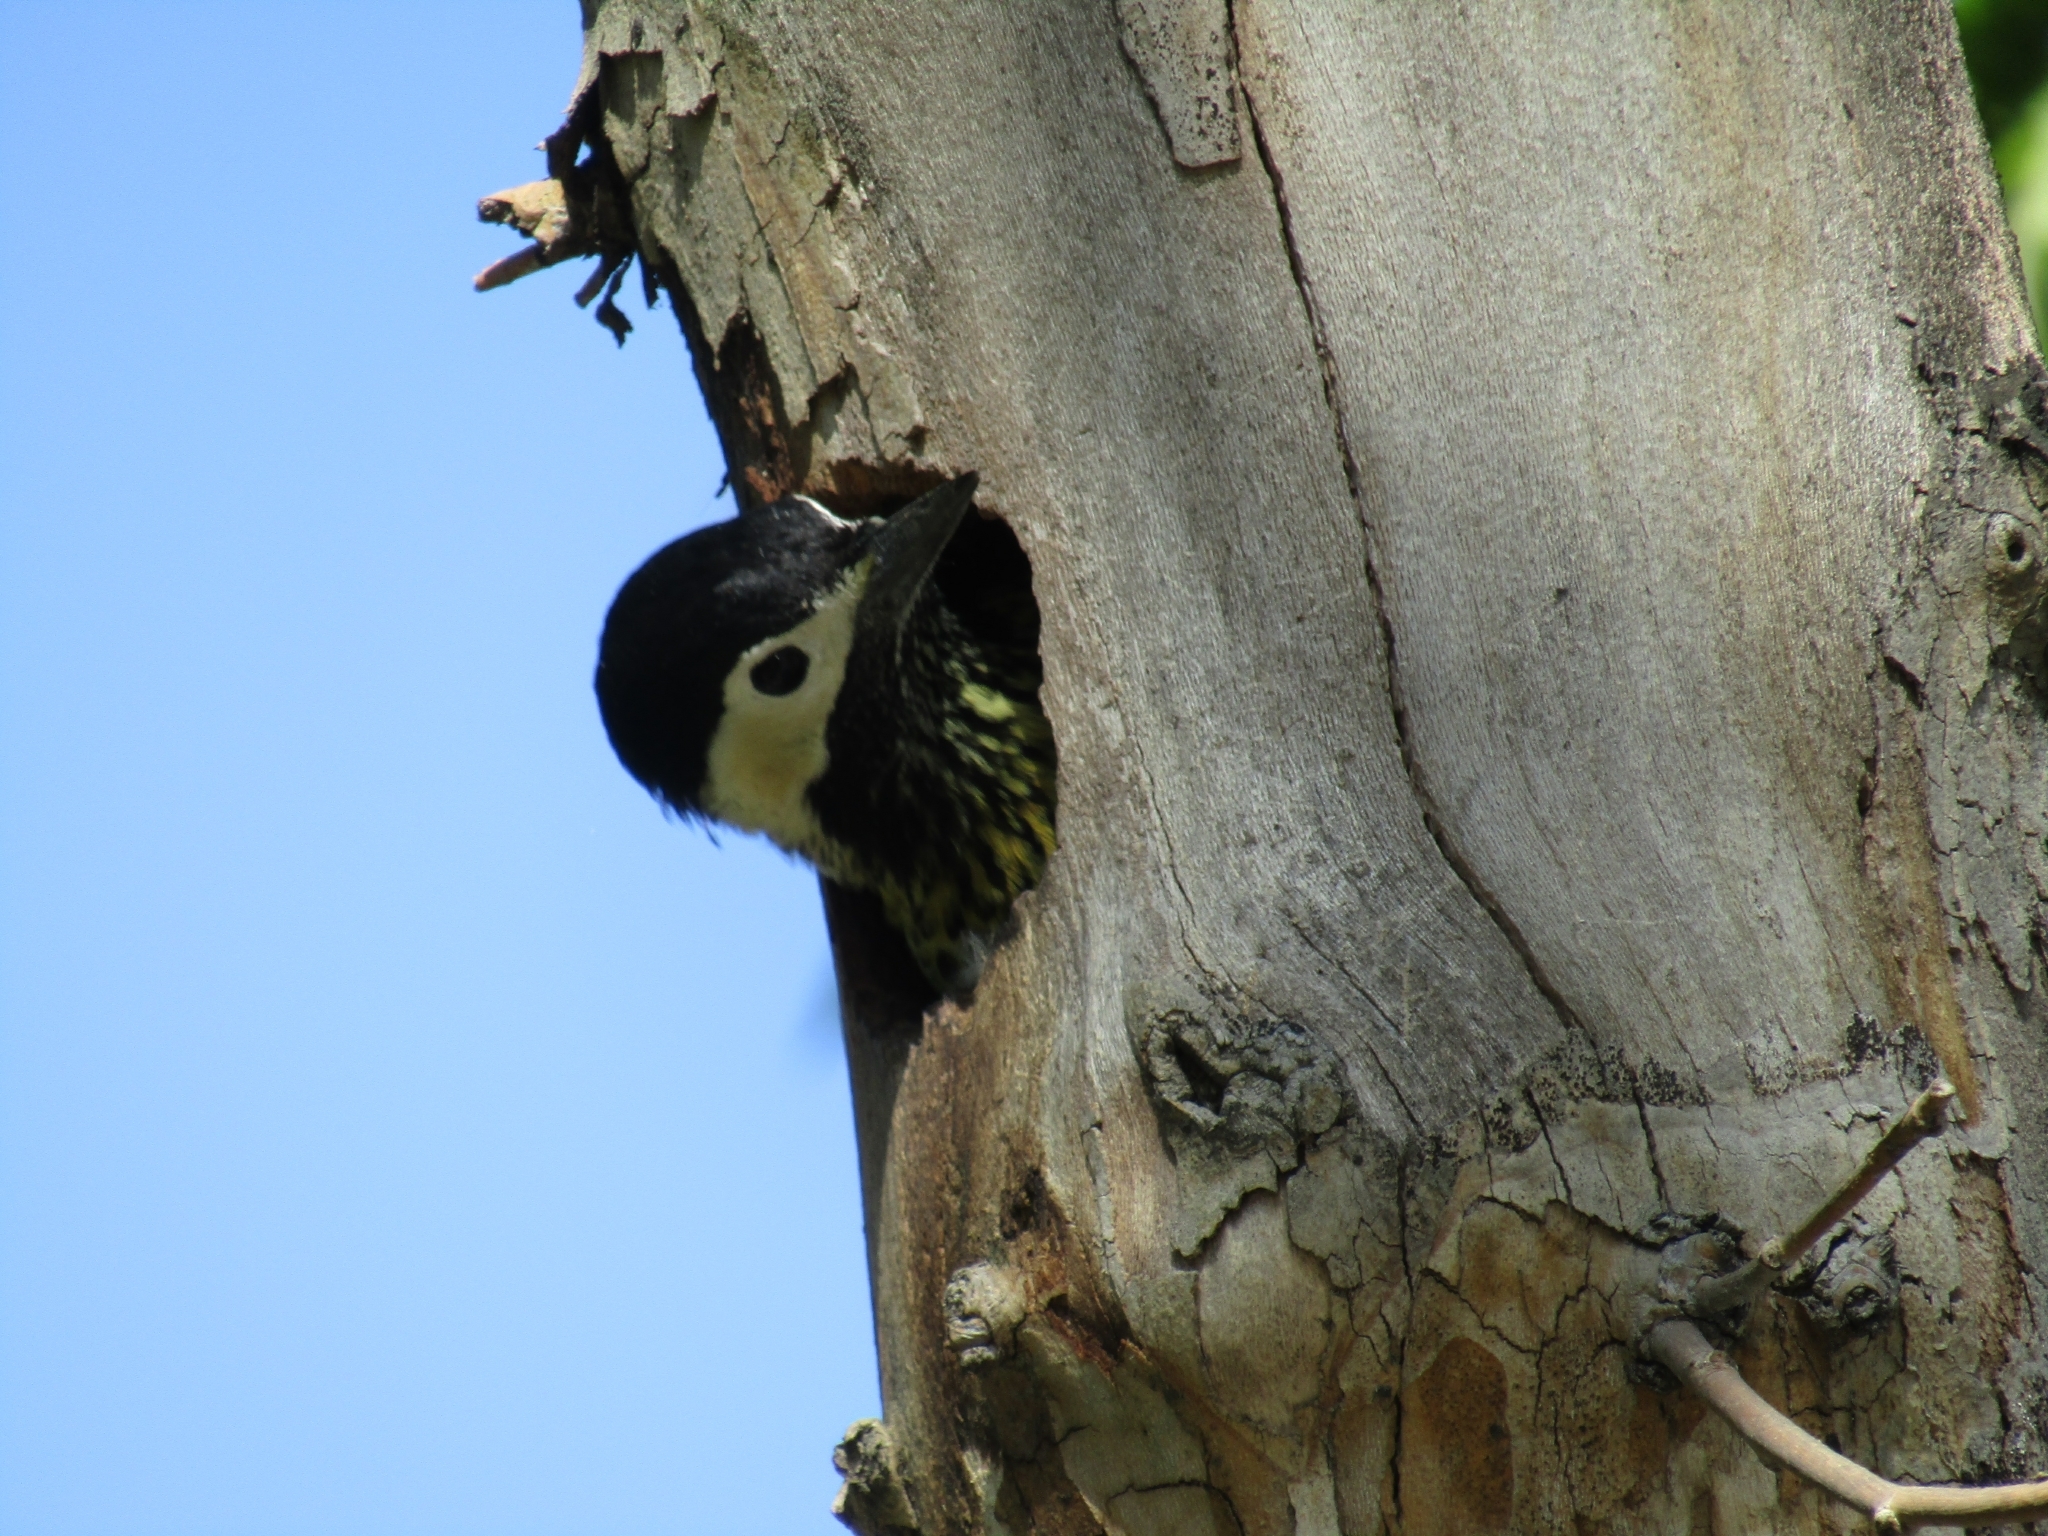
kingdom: Animalia
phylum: Chordata
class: Aves
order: Piciformes
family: Picidae
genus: Colaptes
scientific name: Colaptes melanochloros
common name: Green-barred woodpecker
